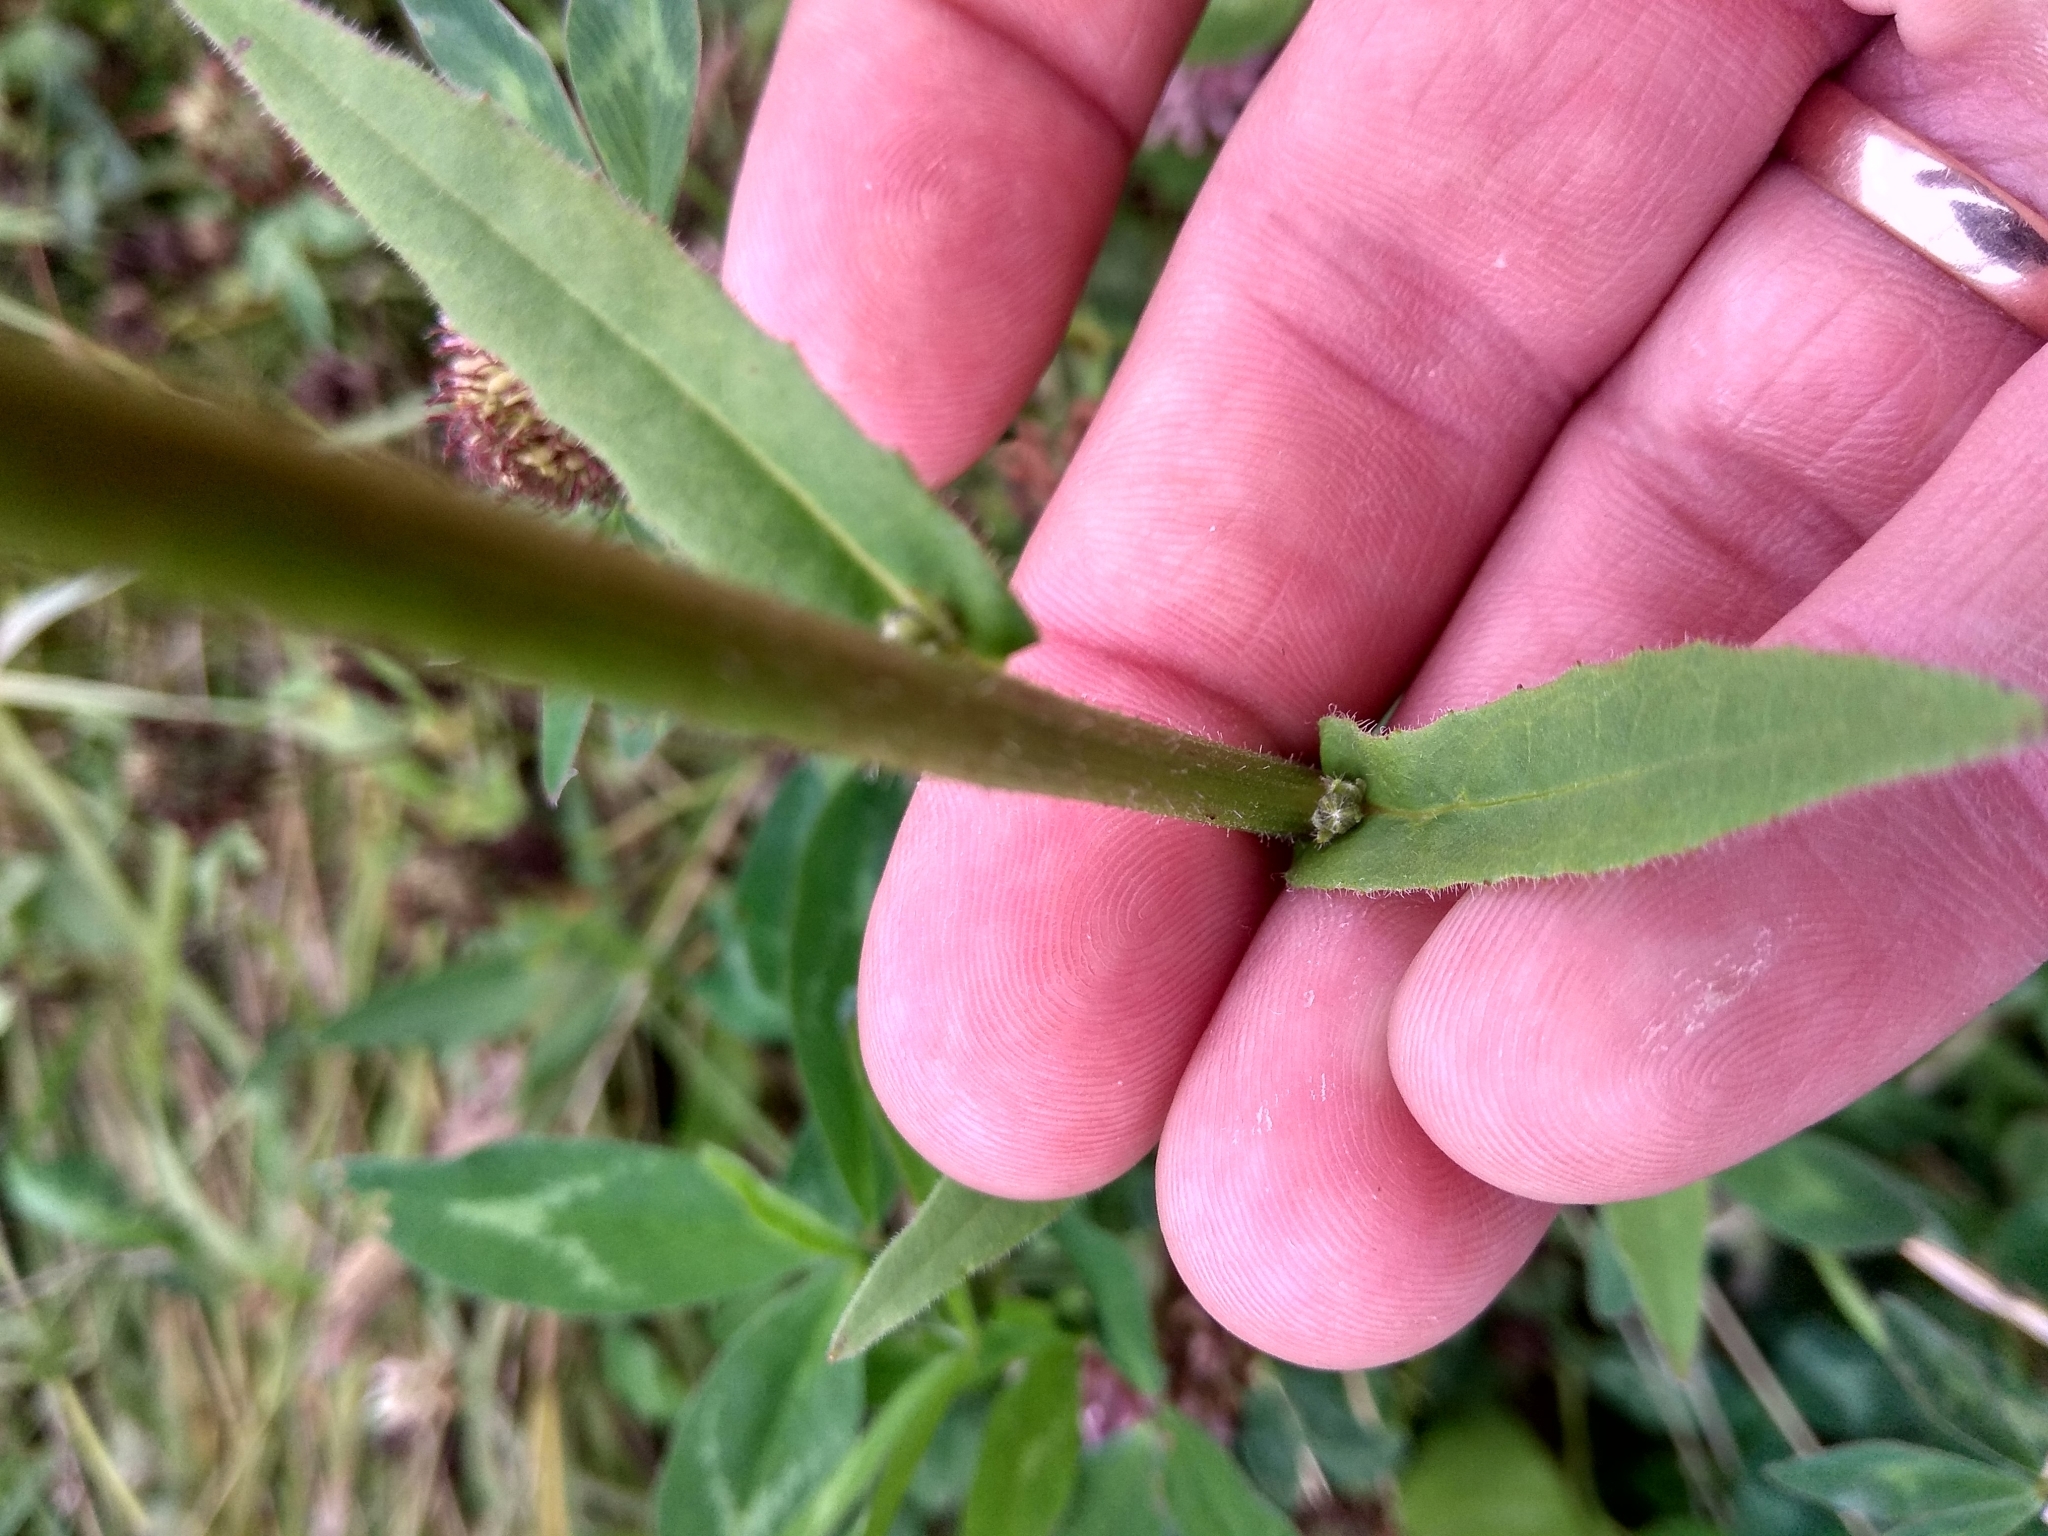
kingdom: Plantae
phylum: Tracheophyta
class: Magnoliopsida
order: Asterales
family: Asteraceae
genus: Picris
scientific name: Picris hieracioides
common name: Hawkweed oxtongue
